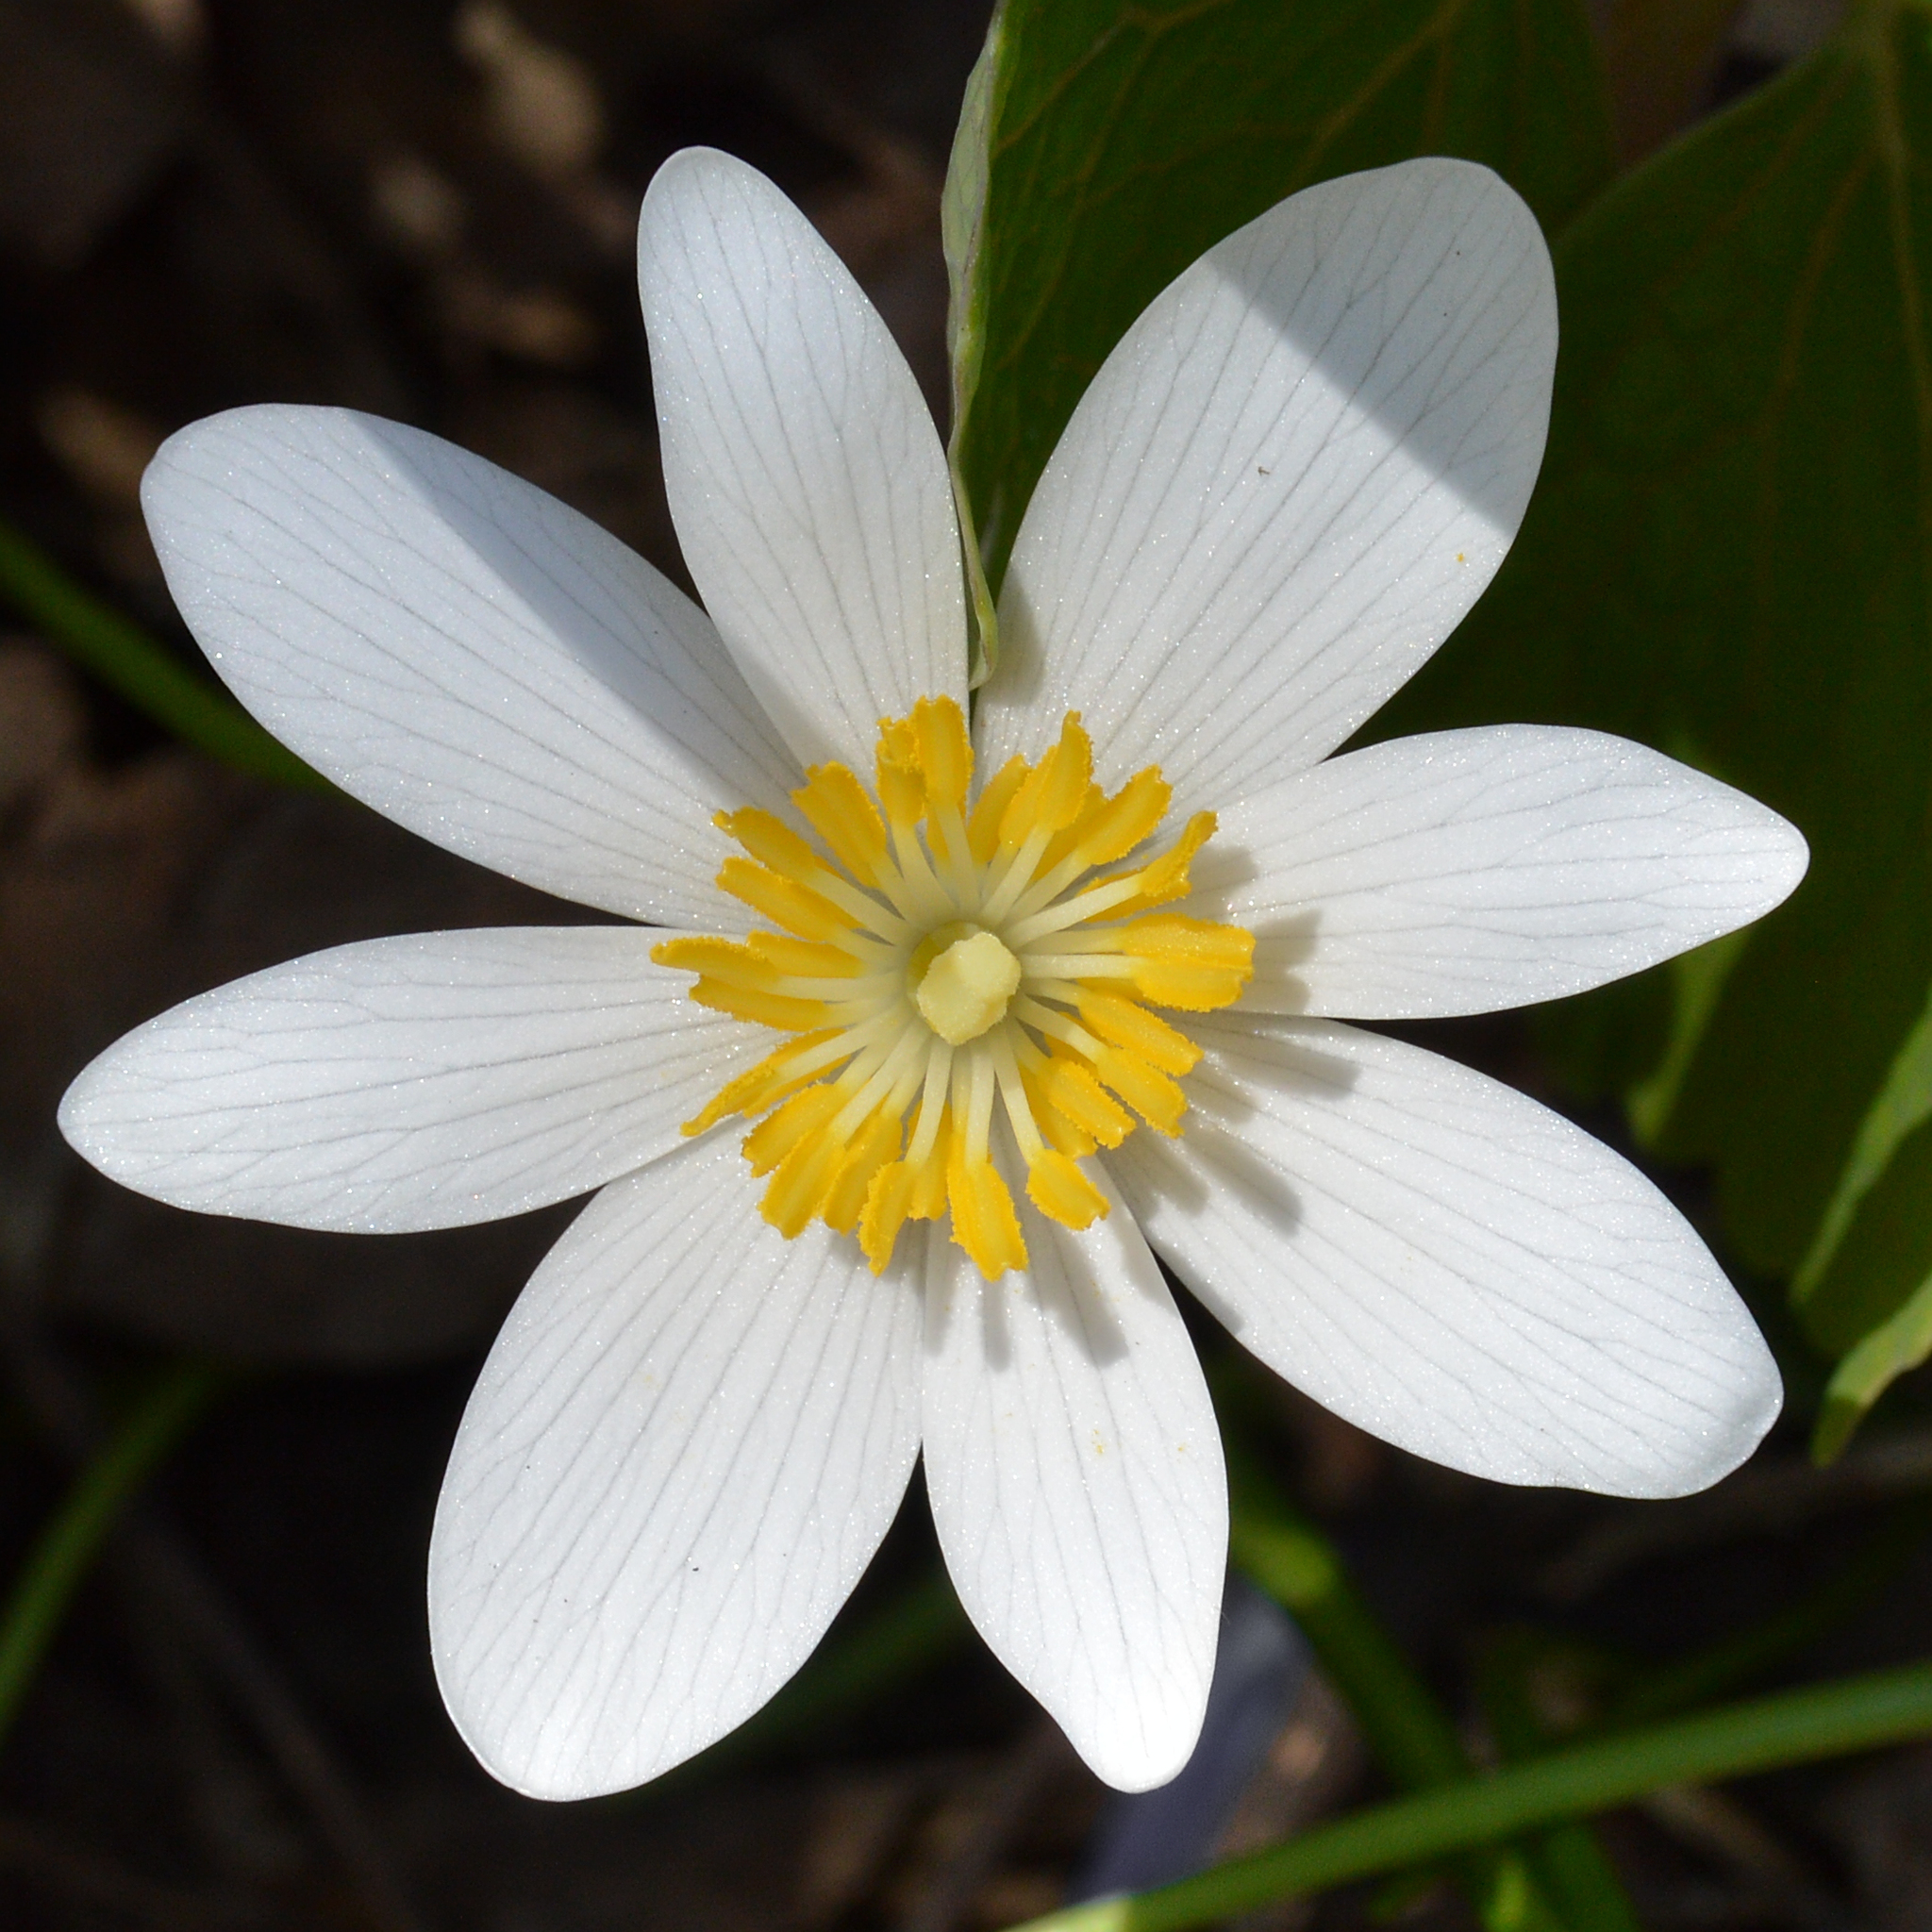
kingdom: Plantae
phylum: Tracheophyta
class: Magnoliopsida
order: Ranunculales
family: Papaveraceae
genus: Sanguinaria
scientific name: Sanguinaria canadensis
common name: Bloodroot
